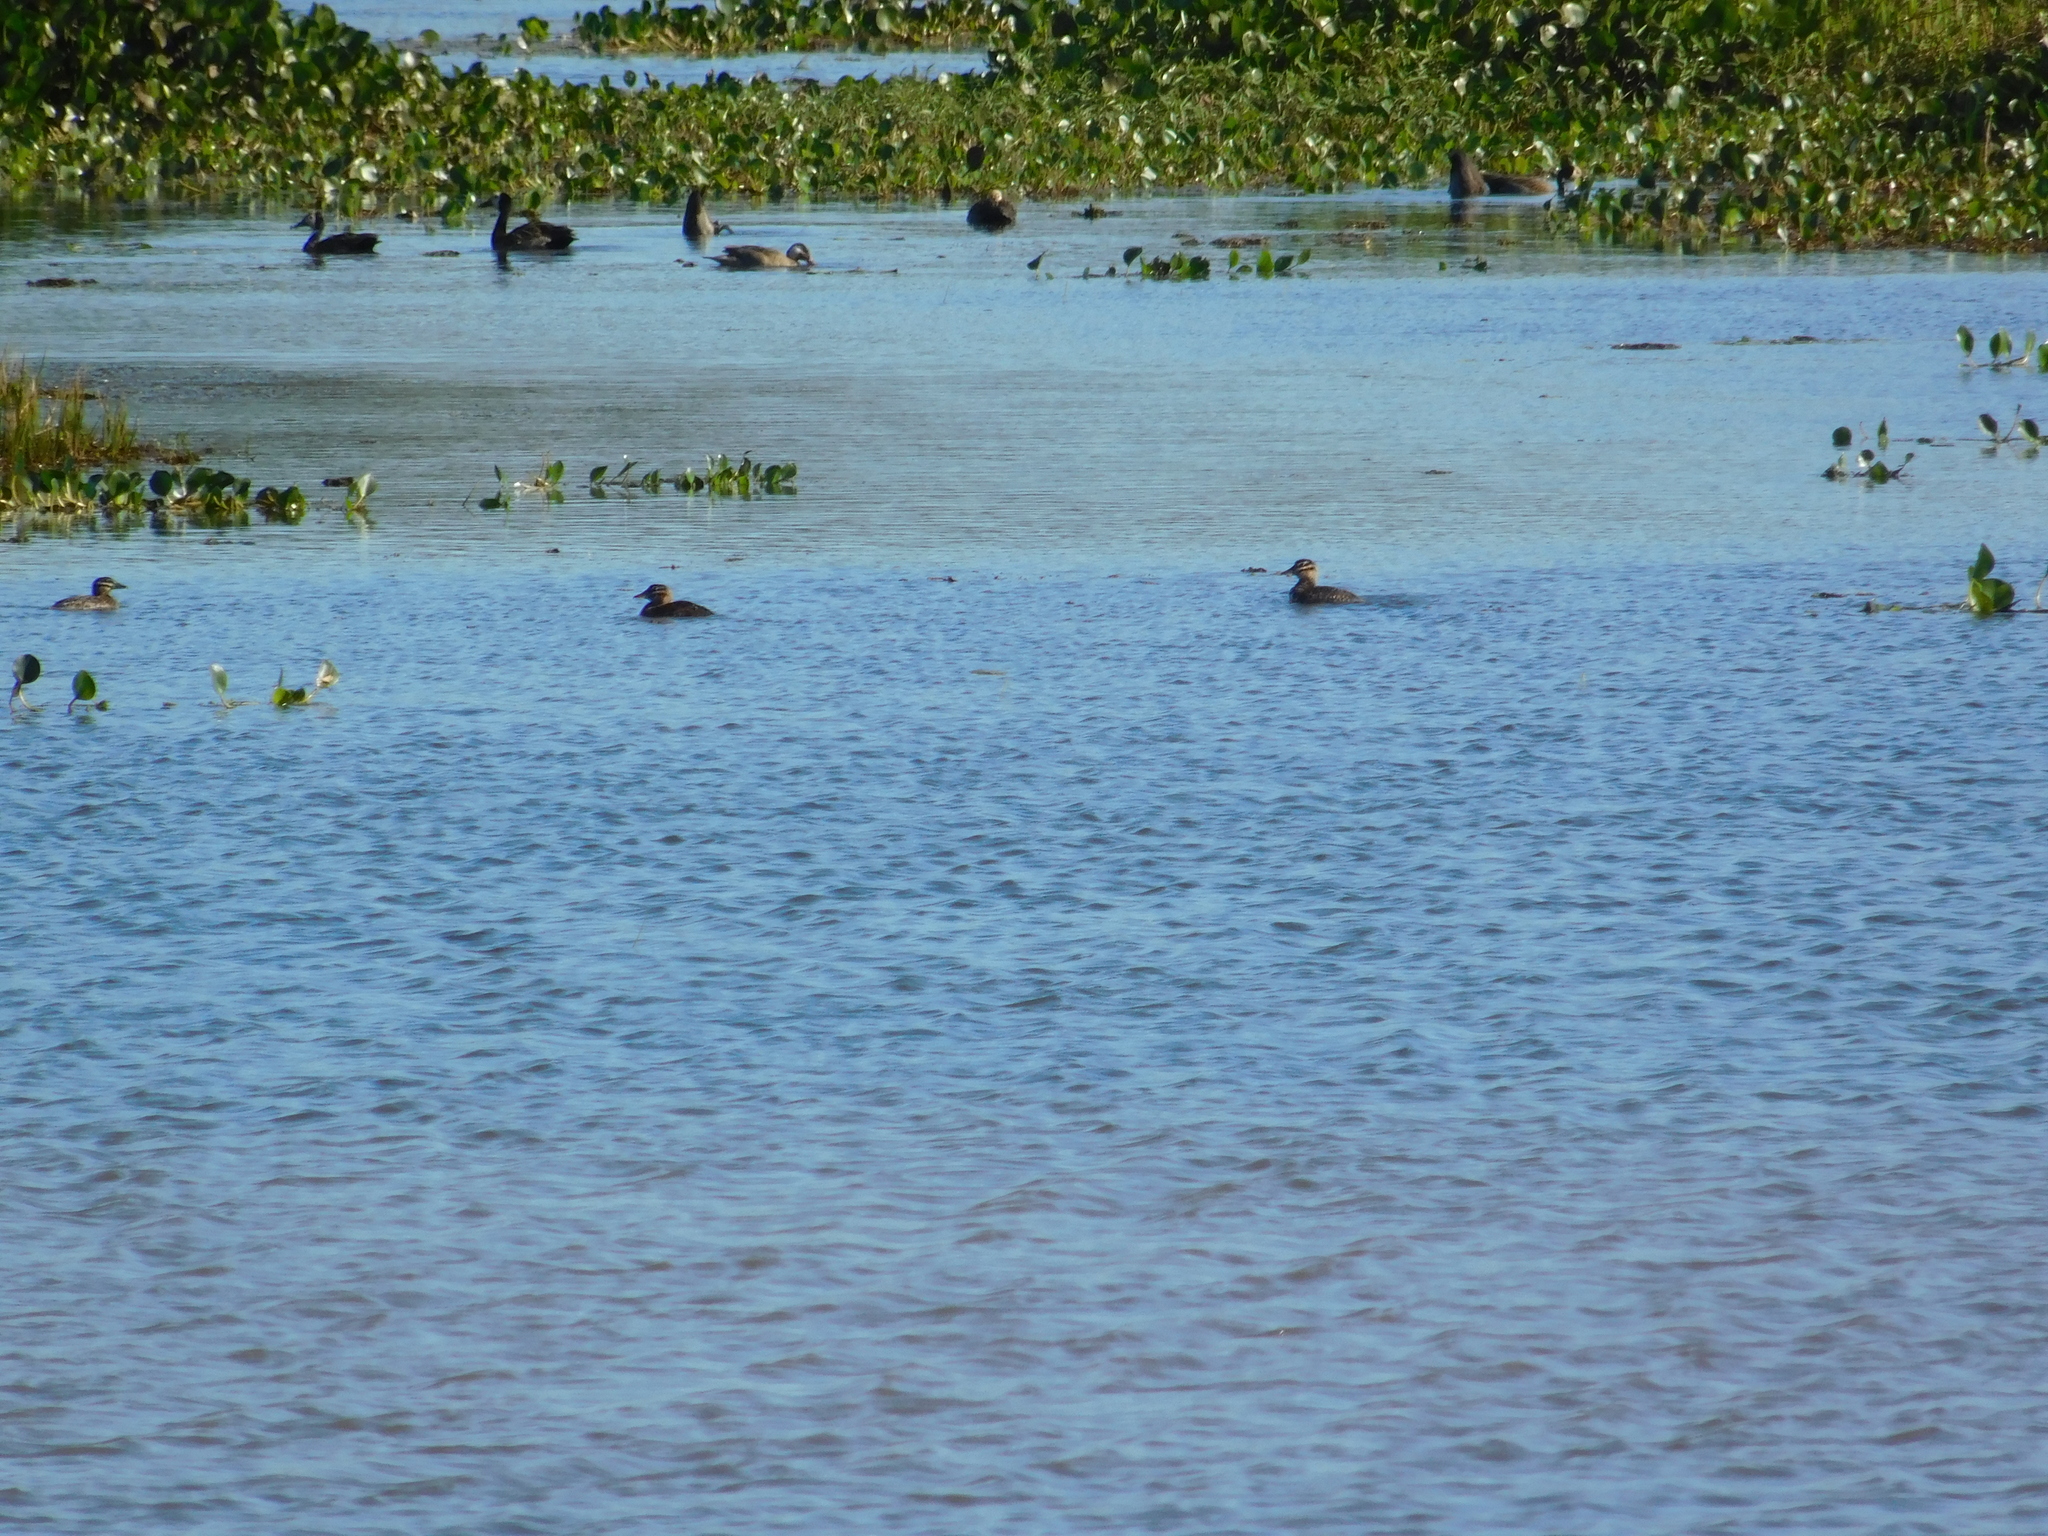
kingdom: Animalia
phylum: Chordata
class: Aves
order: Anseriformes
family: Anatidae
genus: Nomonyx
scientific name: Nomonyx dominicus
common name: Masked duck
